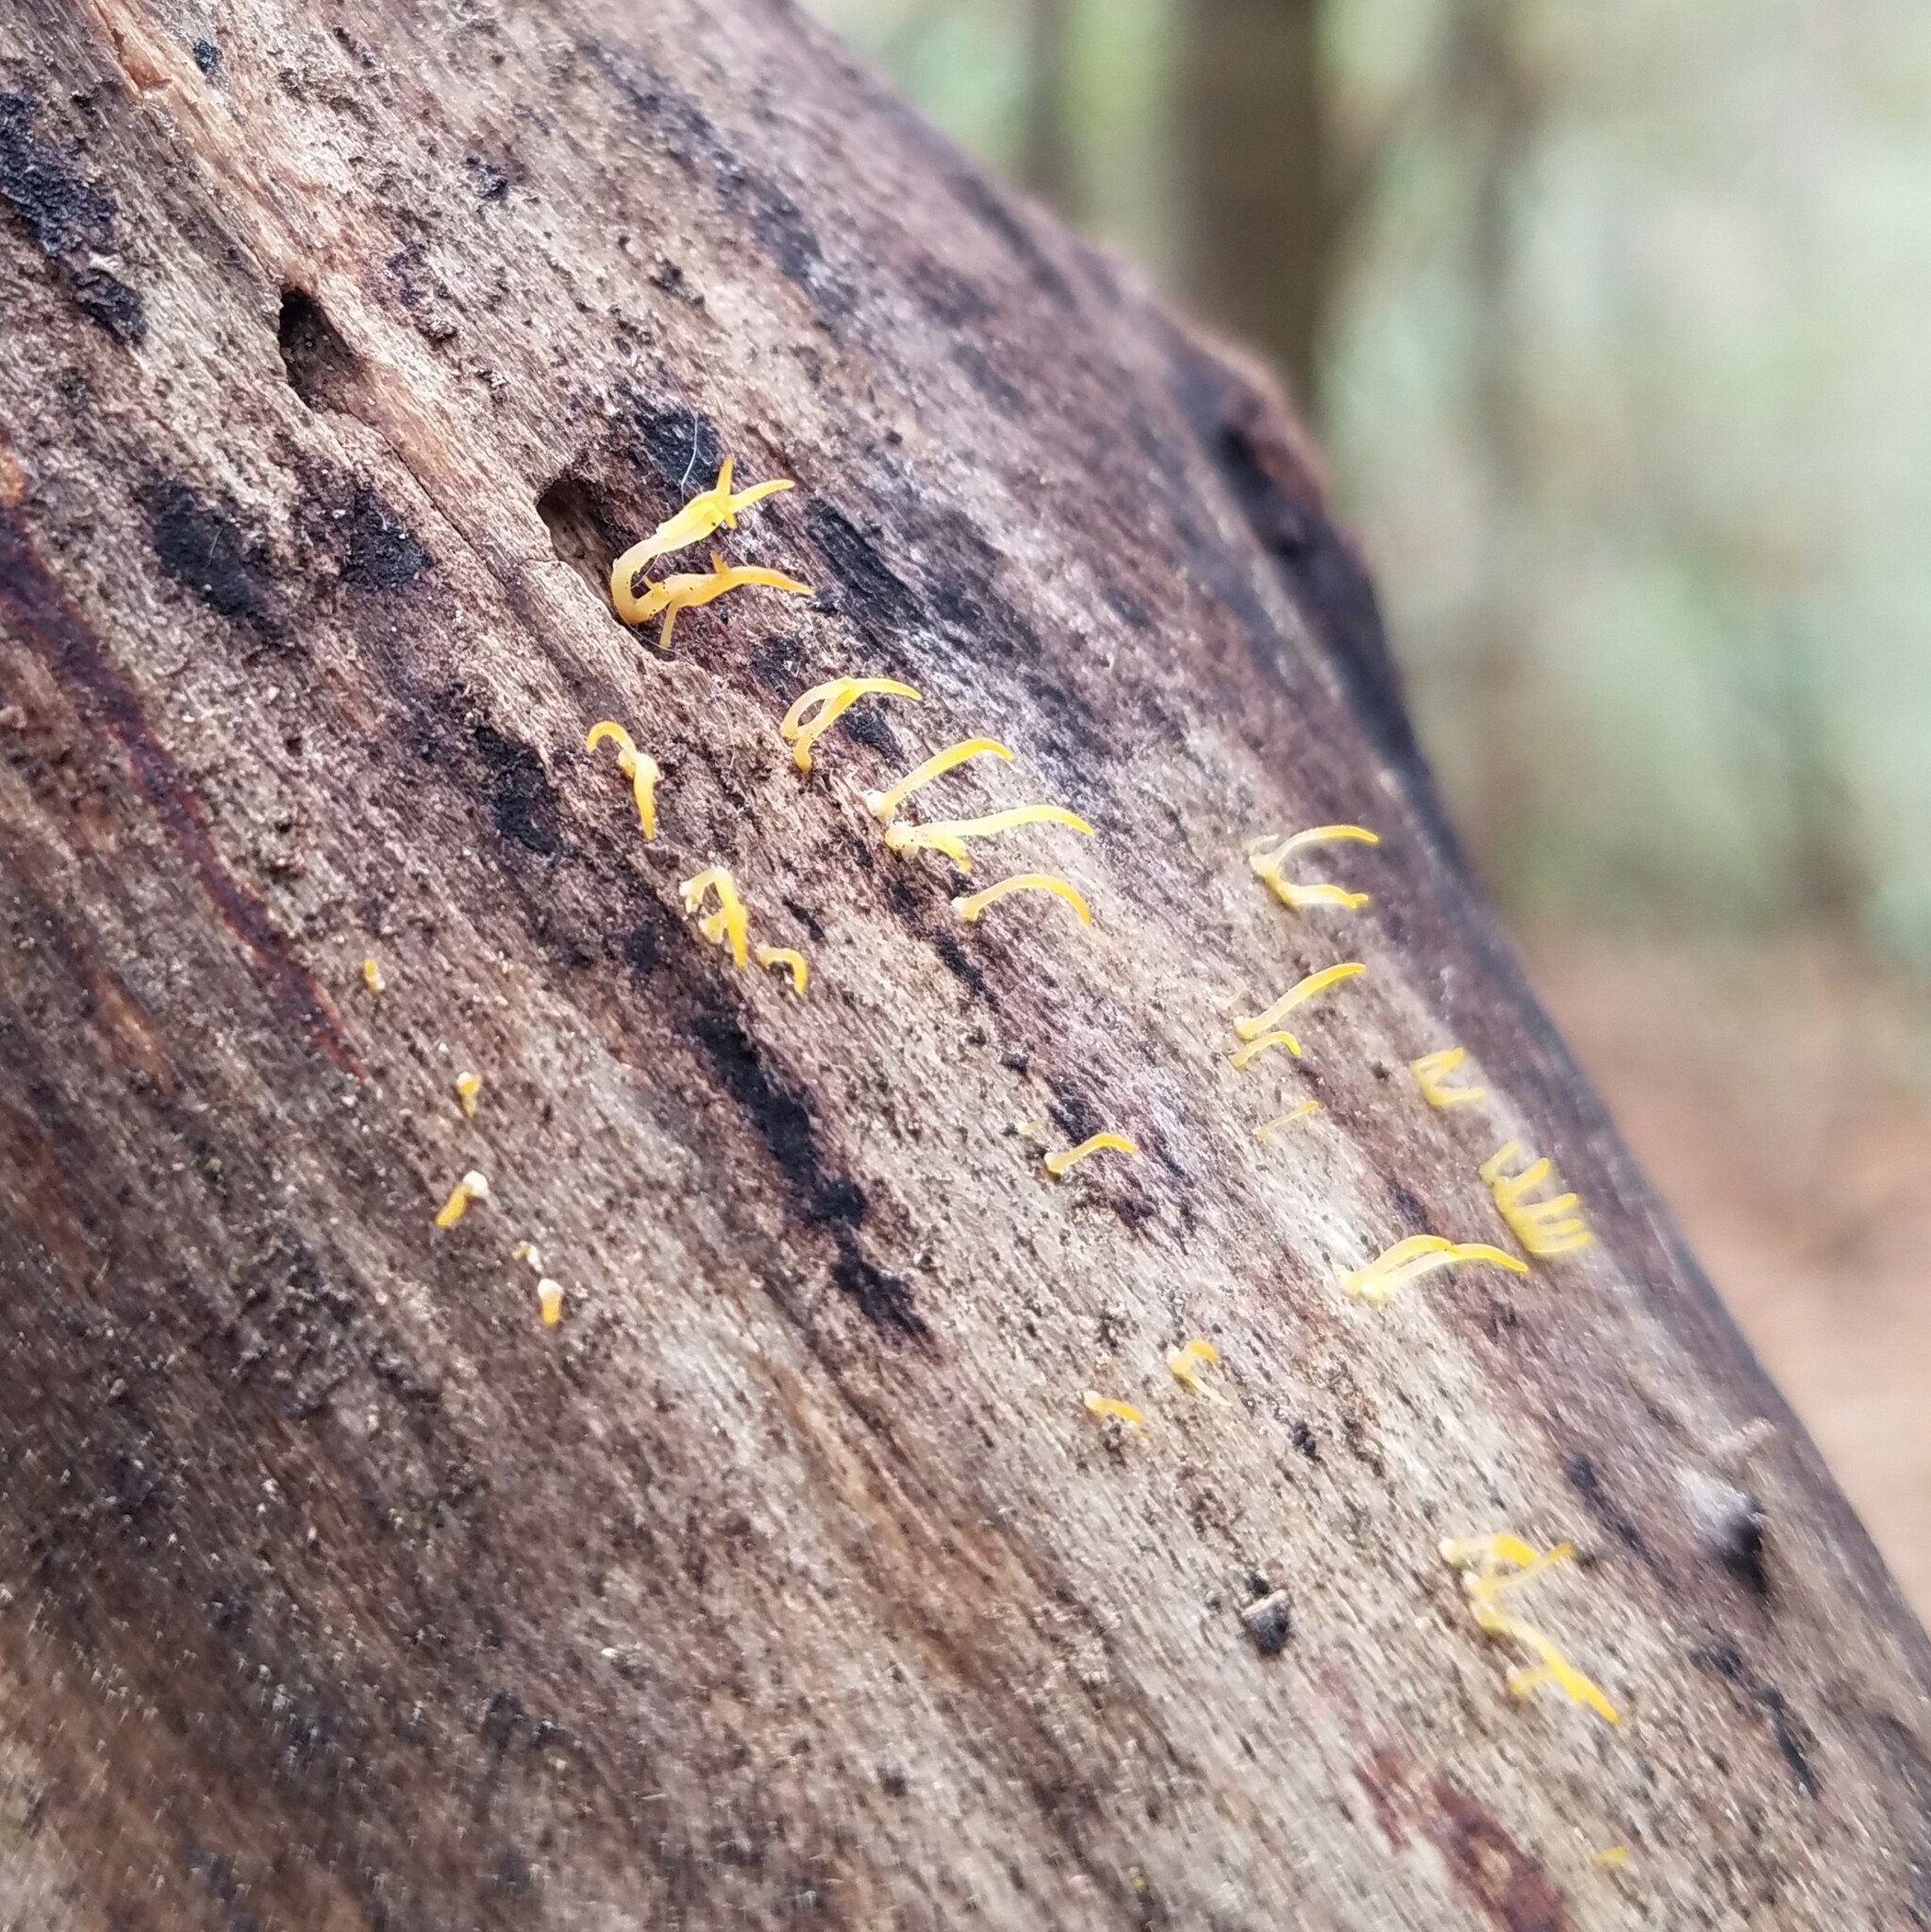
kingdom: Fungi
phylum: Basidiomycota
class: Dacrymycetes
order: Dacrymycetales
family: Dacrymycetaceae
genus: Calocera
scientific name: Calocera cornea
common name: Small stagshorn
